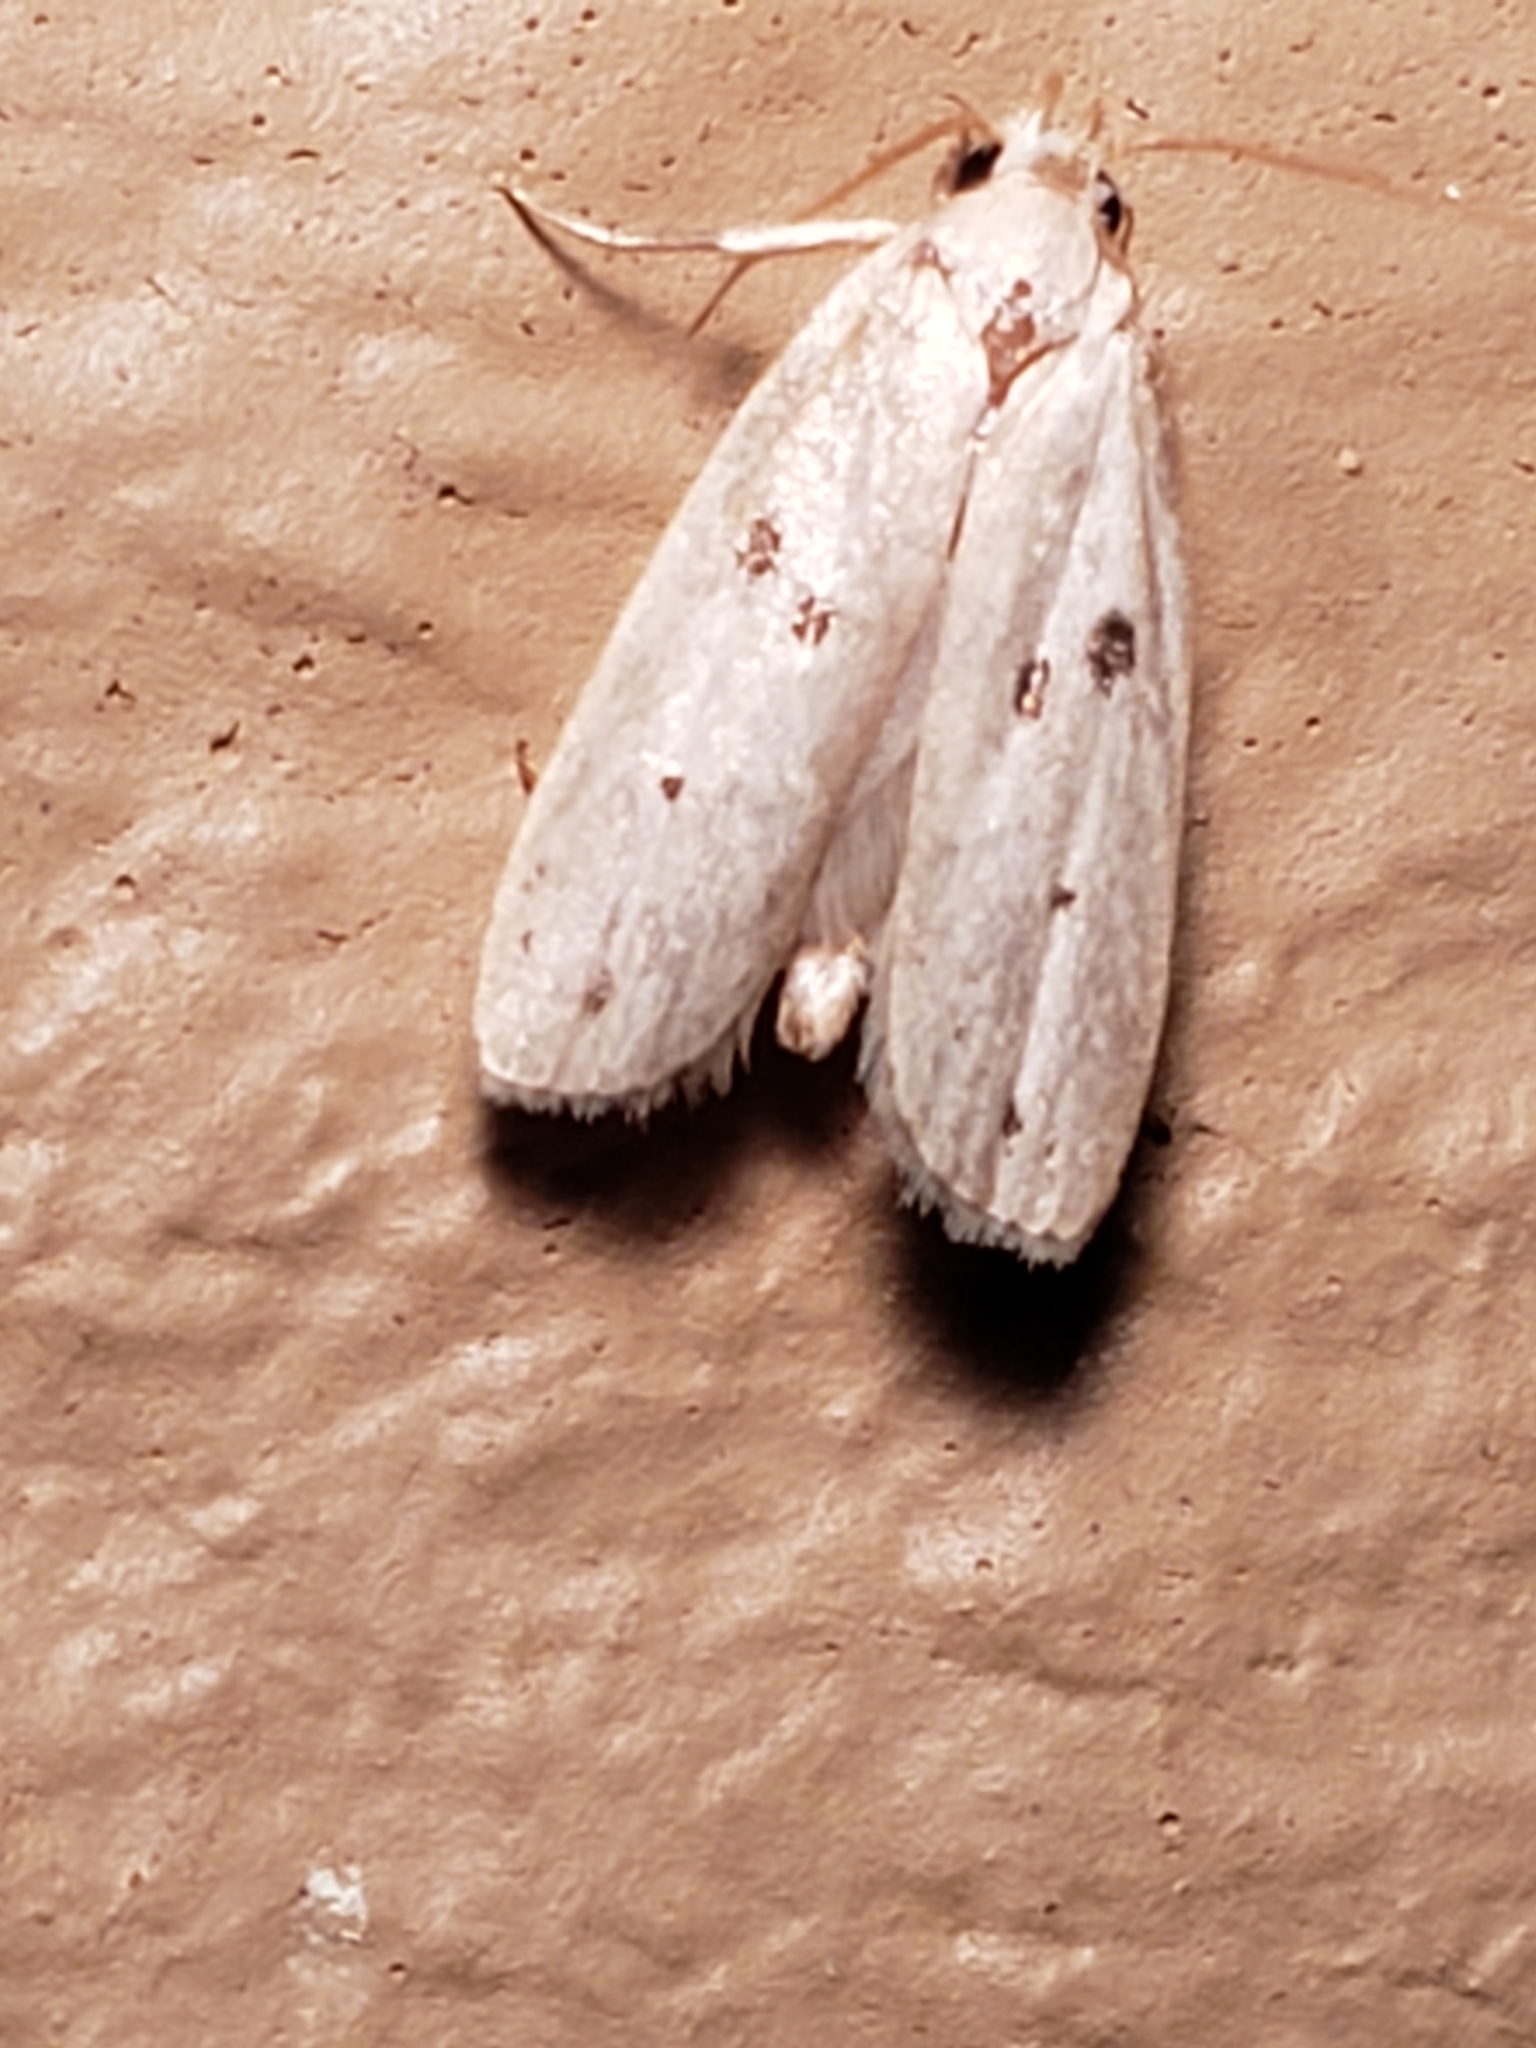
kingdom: Animalia
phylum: Arthropoda
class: Insecta
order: Lepidoptera
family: Peleopodidae
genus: Scythropiodes
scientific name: Scythropiodes issikii
